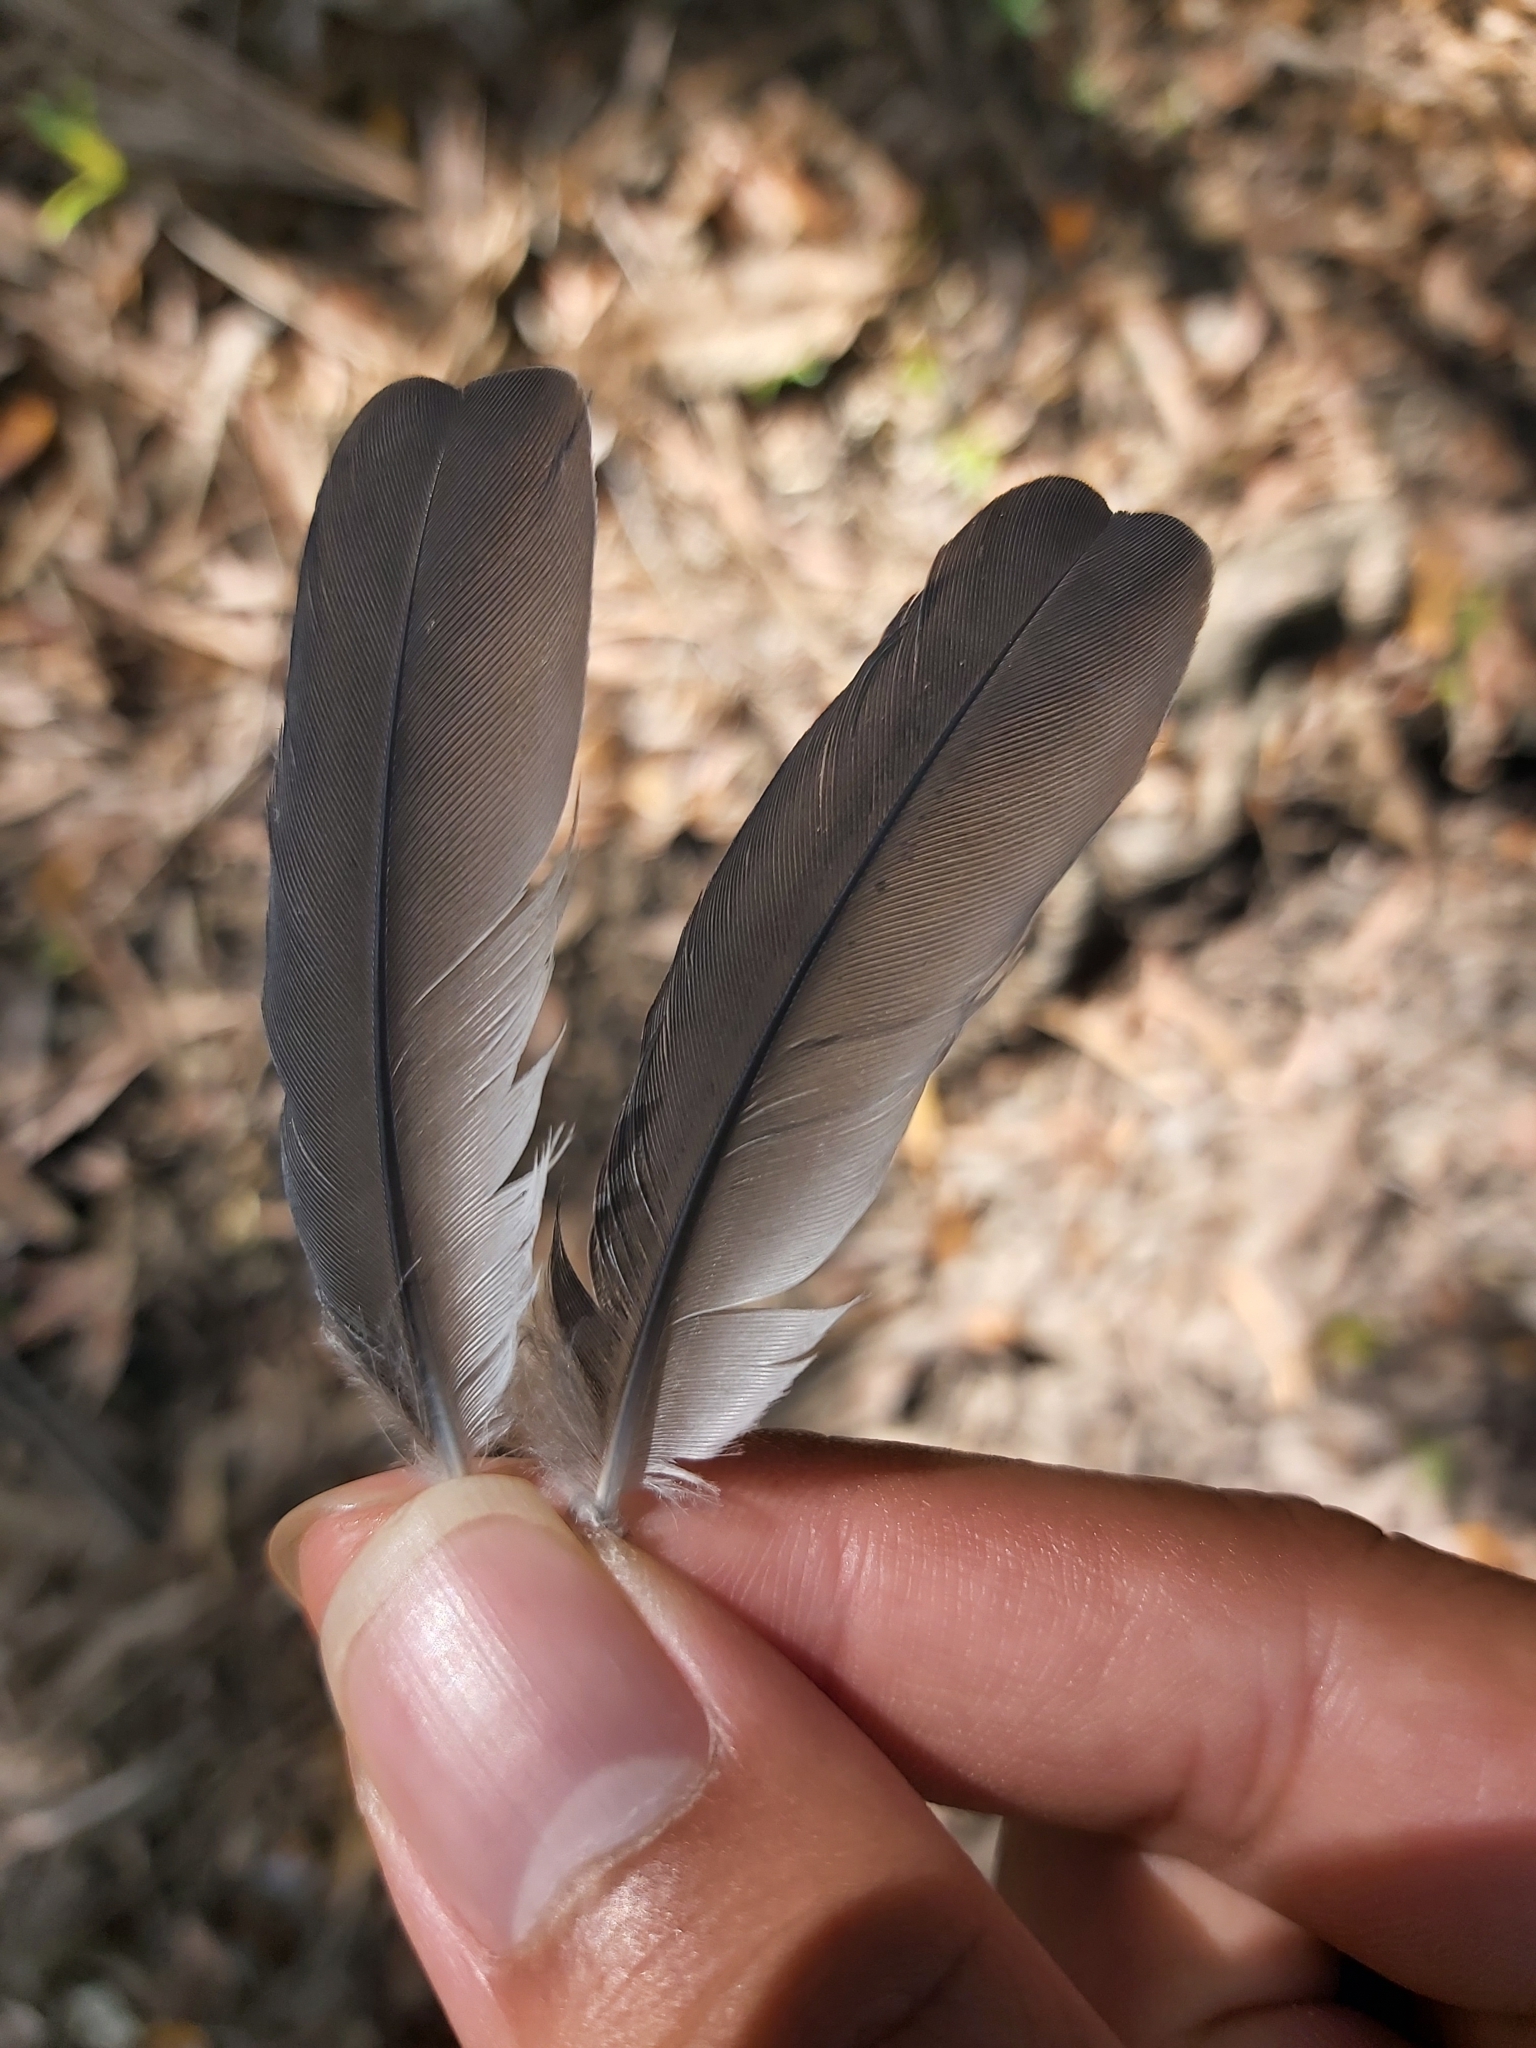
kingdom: Animalia
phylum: Chordata
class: Aves
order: Passeriformes
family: Artamidae
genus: Artamus
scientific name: Artamus leucoryn
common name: White-breasted woodswallow
